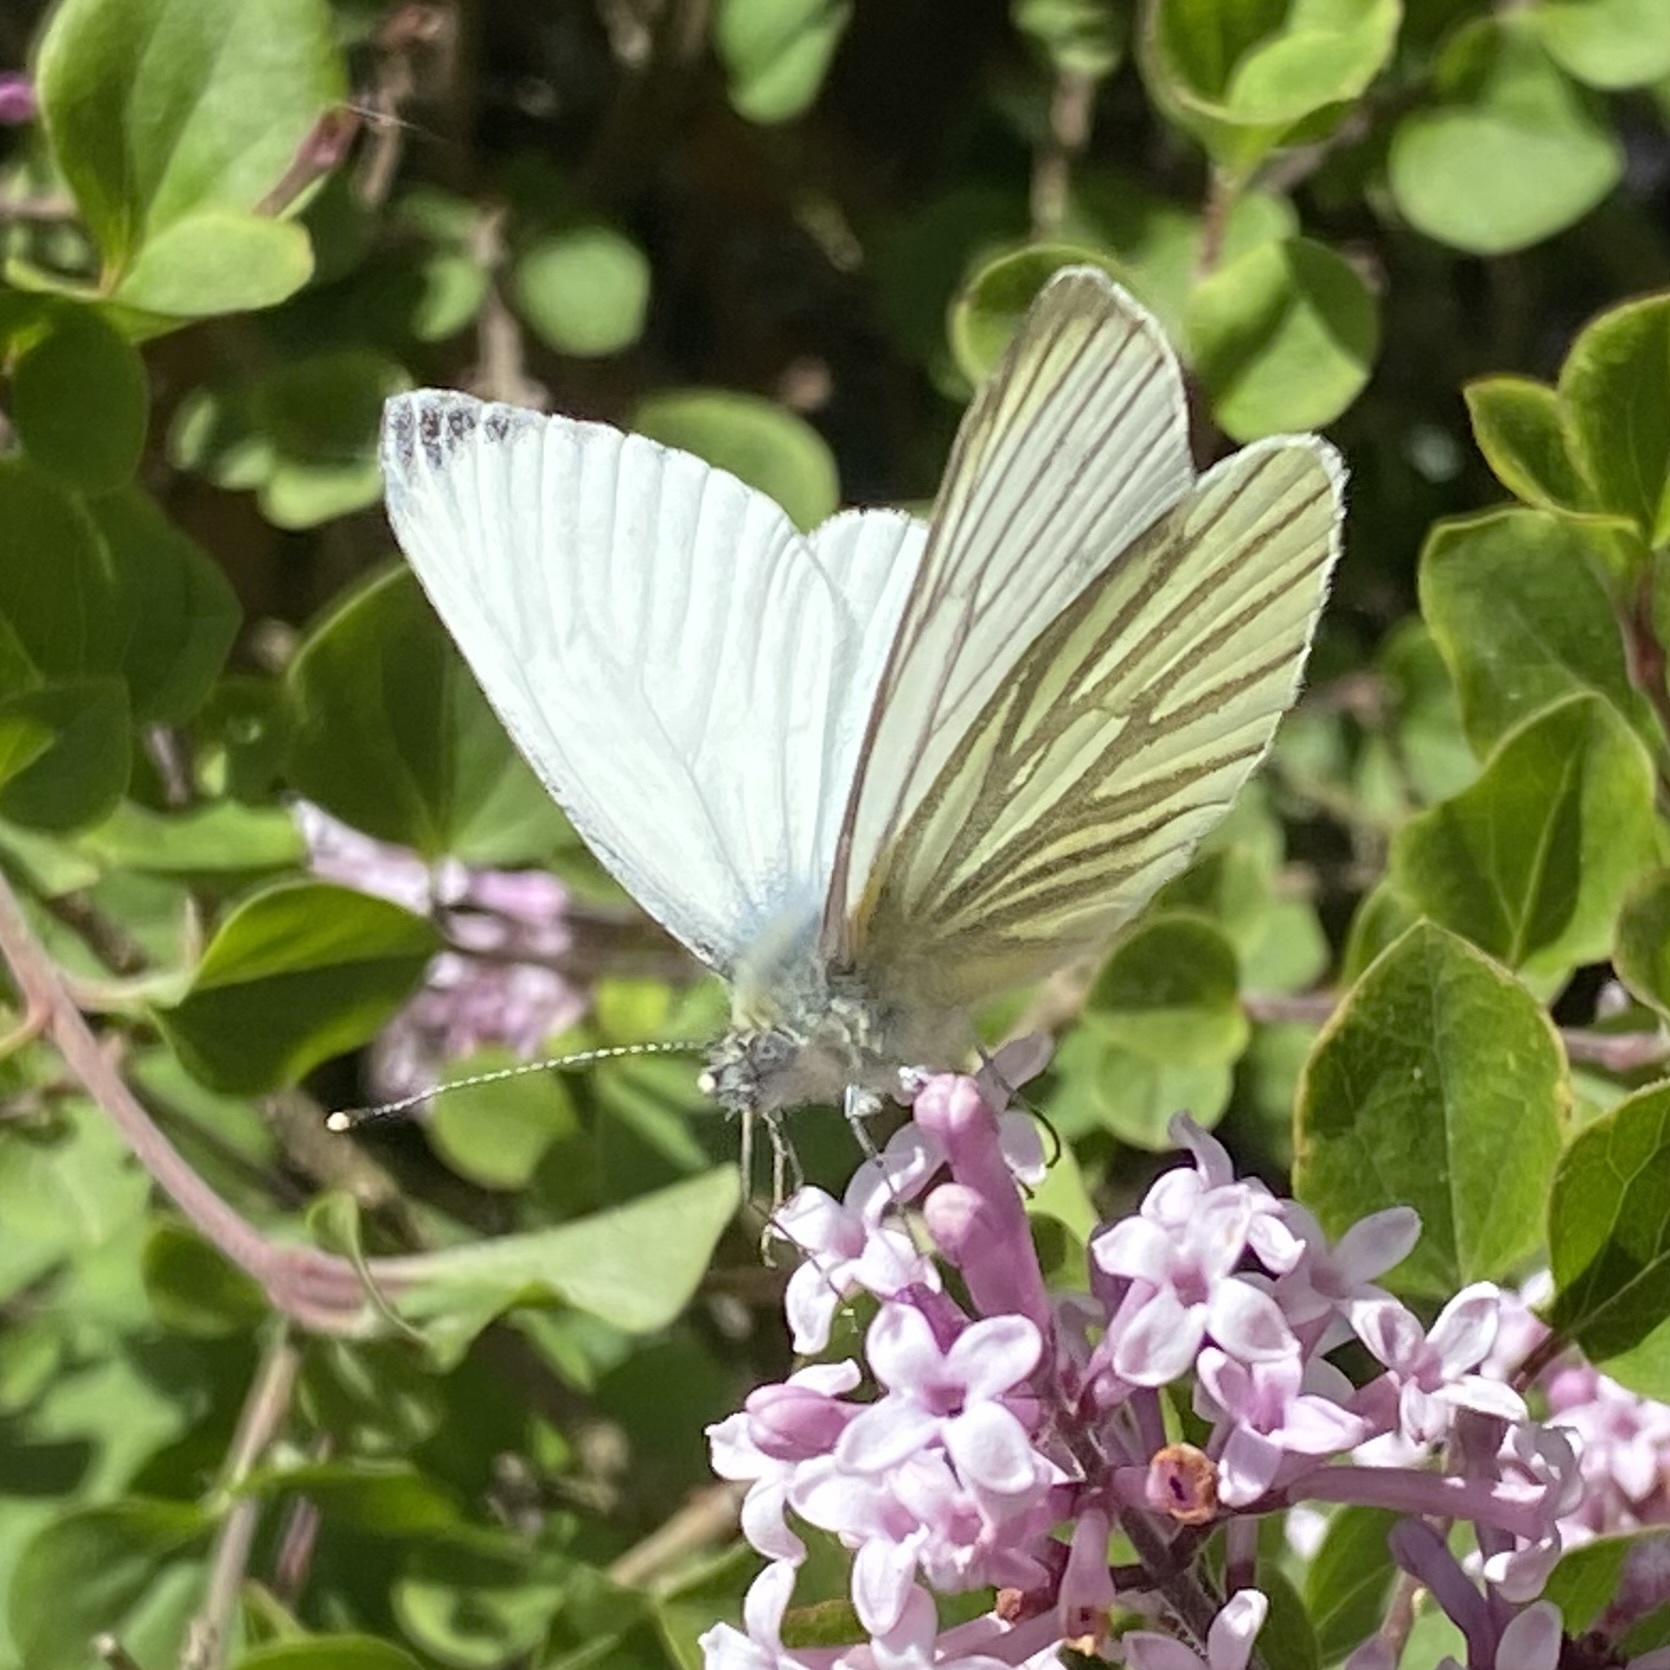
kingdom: Animalia
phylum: Arthropoda
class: Insecta
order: Lepidoptera
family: Pieridae
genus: Pieris
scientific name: Pieris napi
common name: Green-veined white
